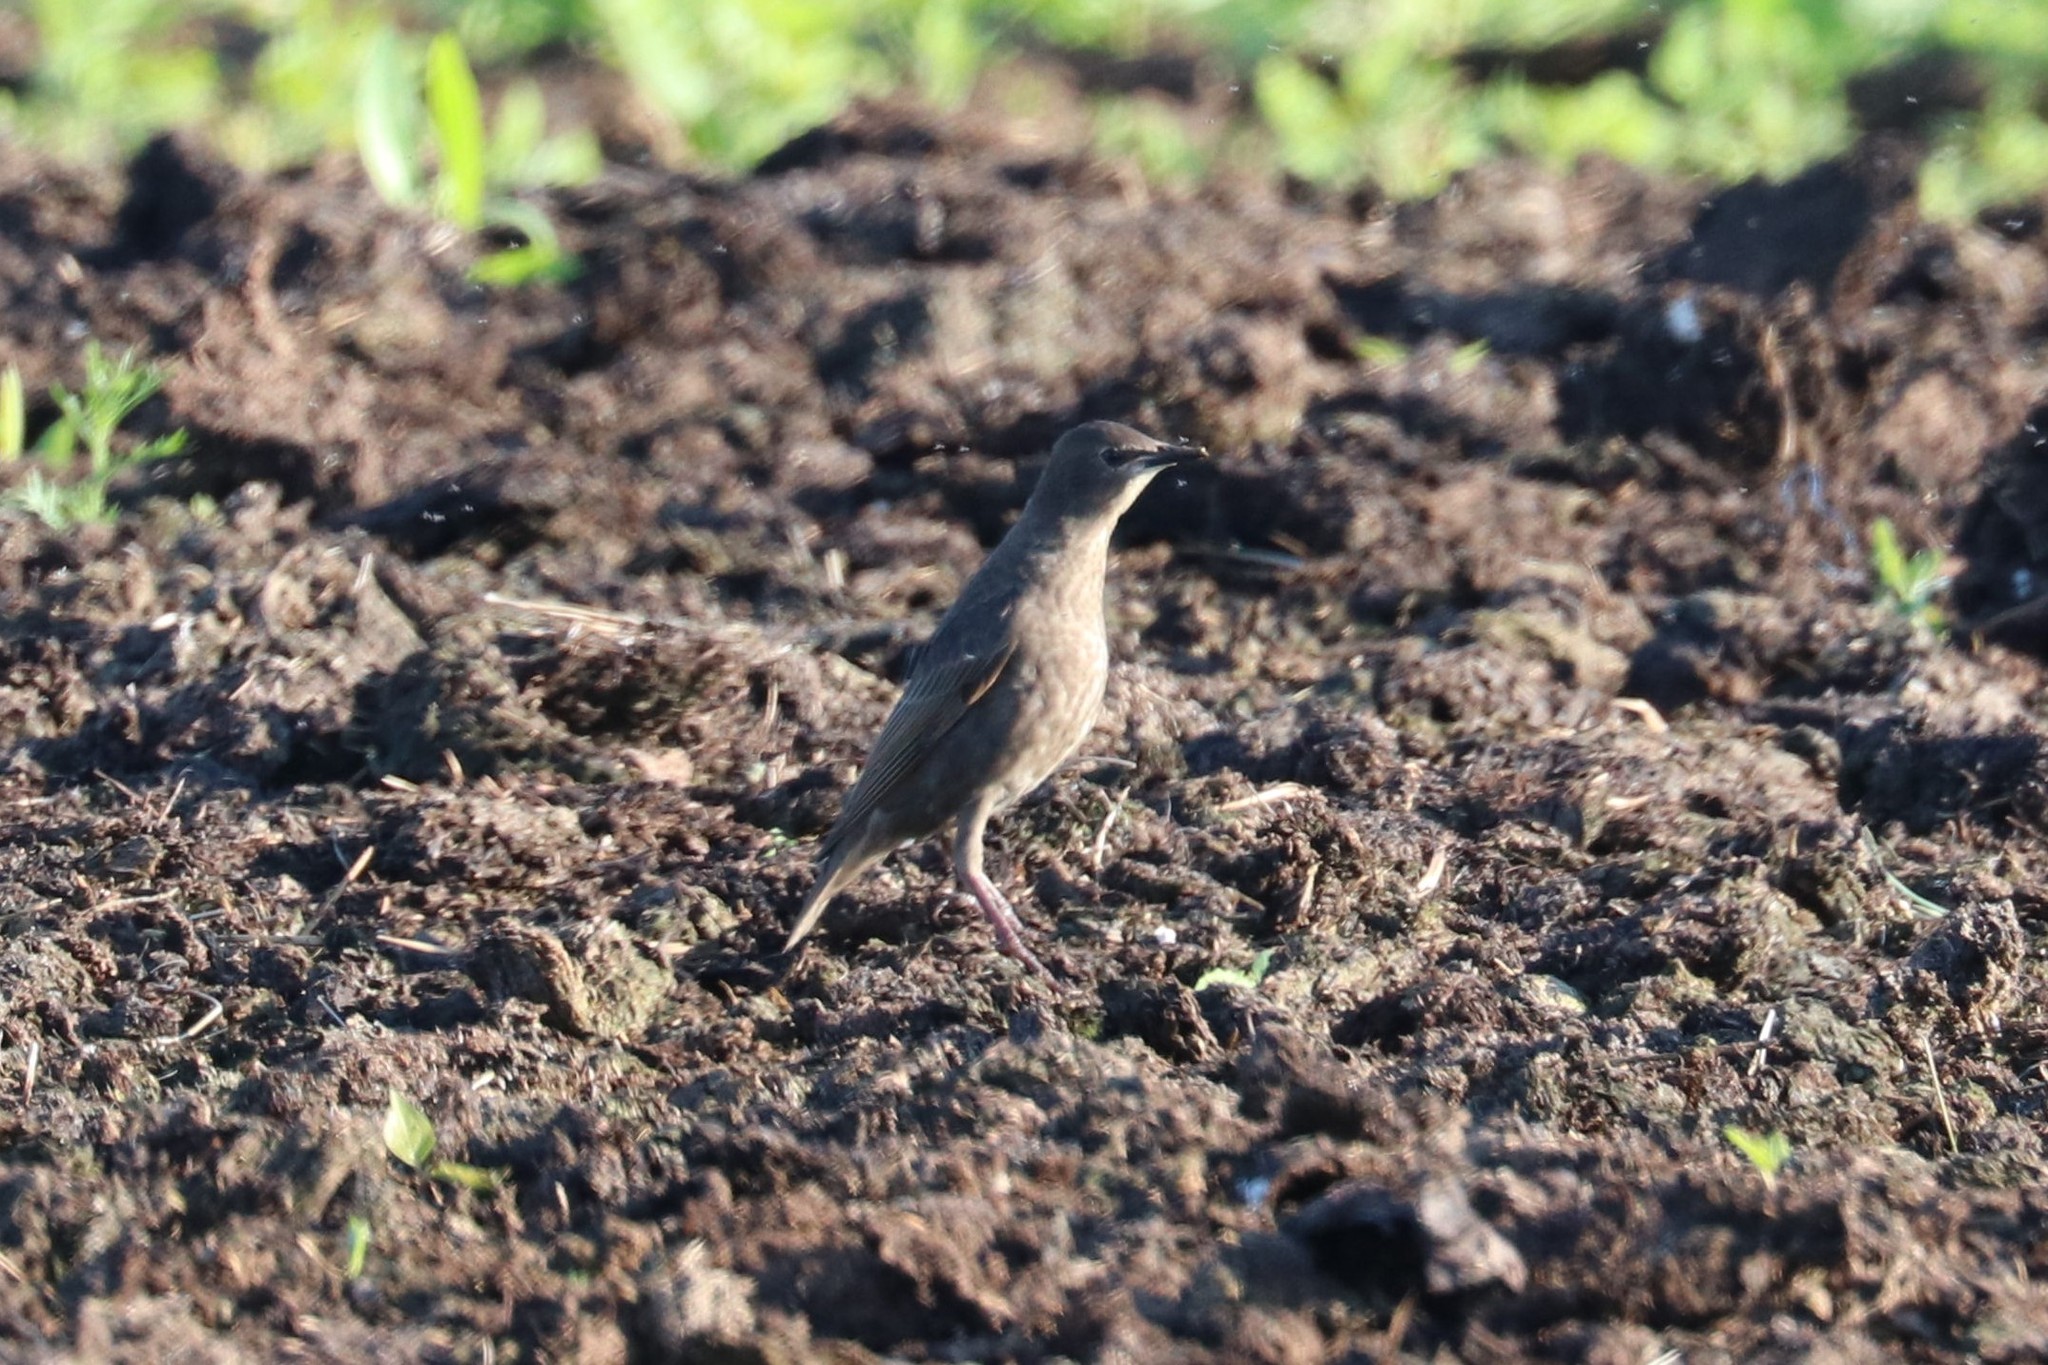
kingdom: Animalia
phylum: Chordata
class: Aves
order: Passeriformes
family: Sturnidae
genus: Sturnus
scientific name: Sturnus vulgaris
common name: Common starling
